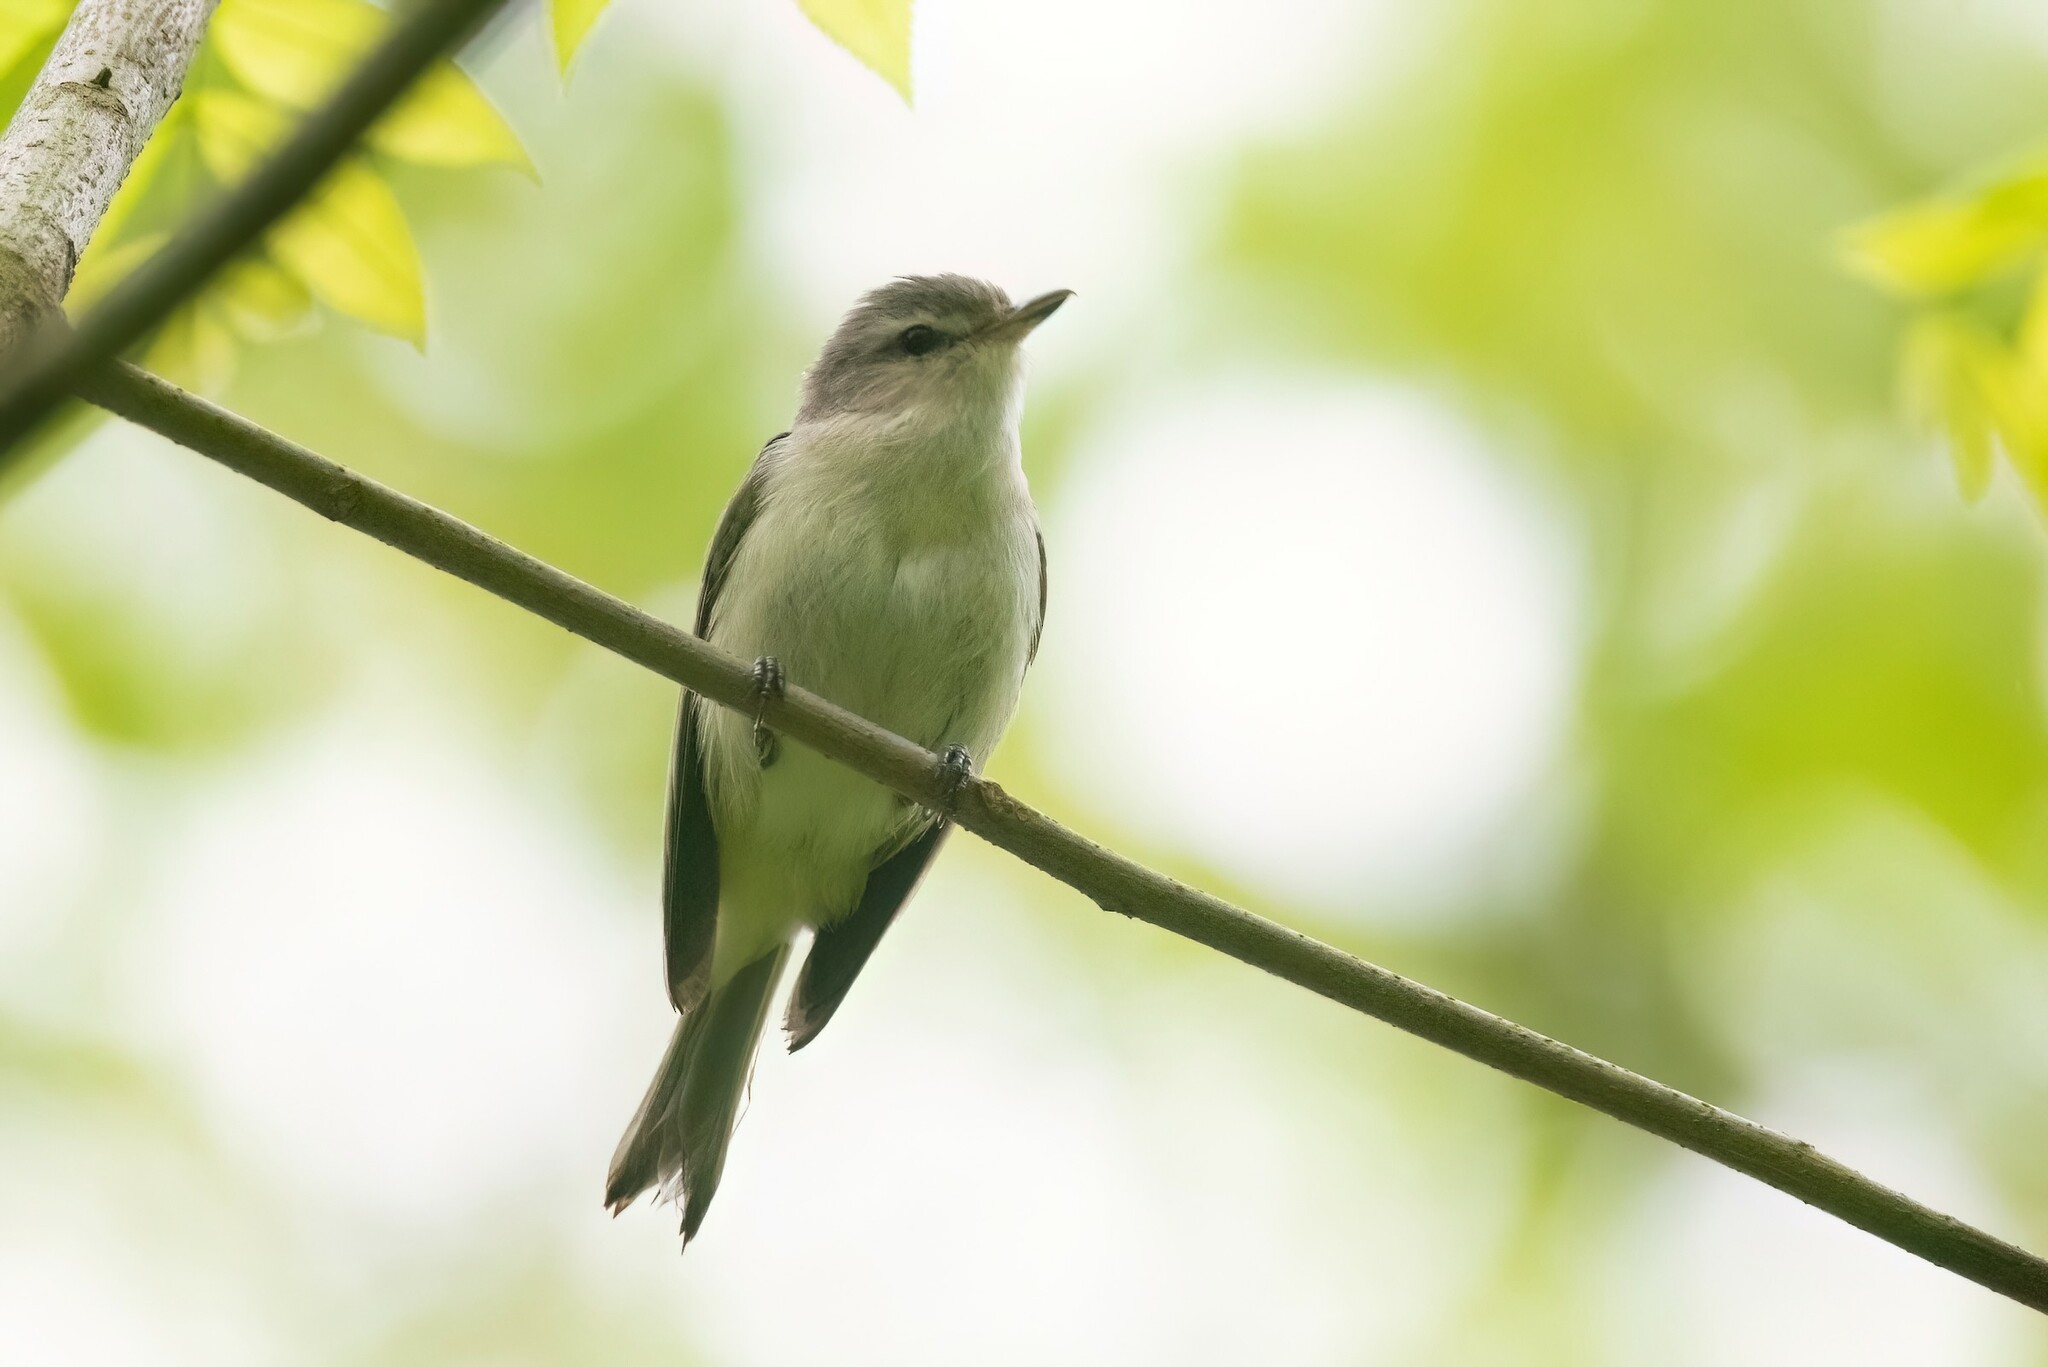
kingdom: Animalia
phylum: Chordata
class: Aves
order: Passeriformes
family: Vireonidae
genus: Vireo
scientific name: Vireo gilvus
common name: Warbling vireo
